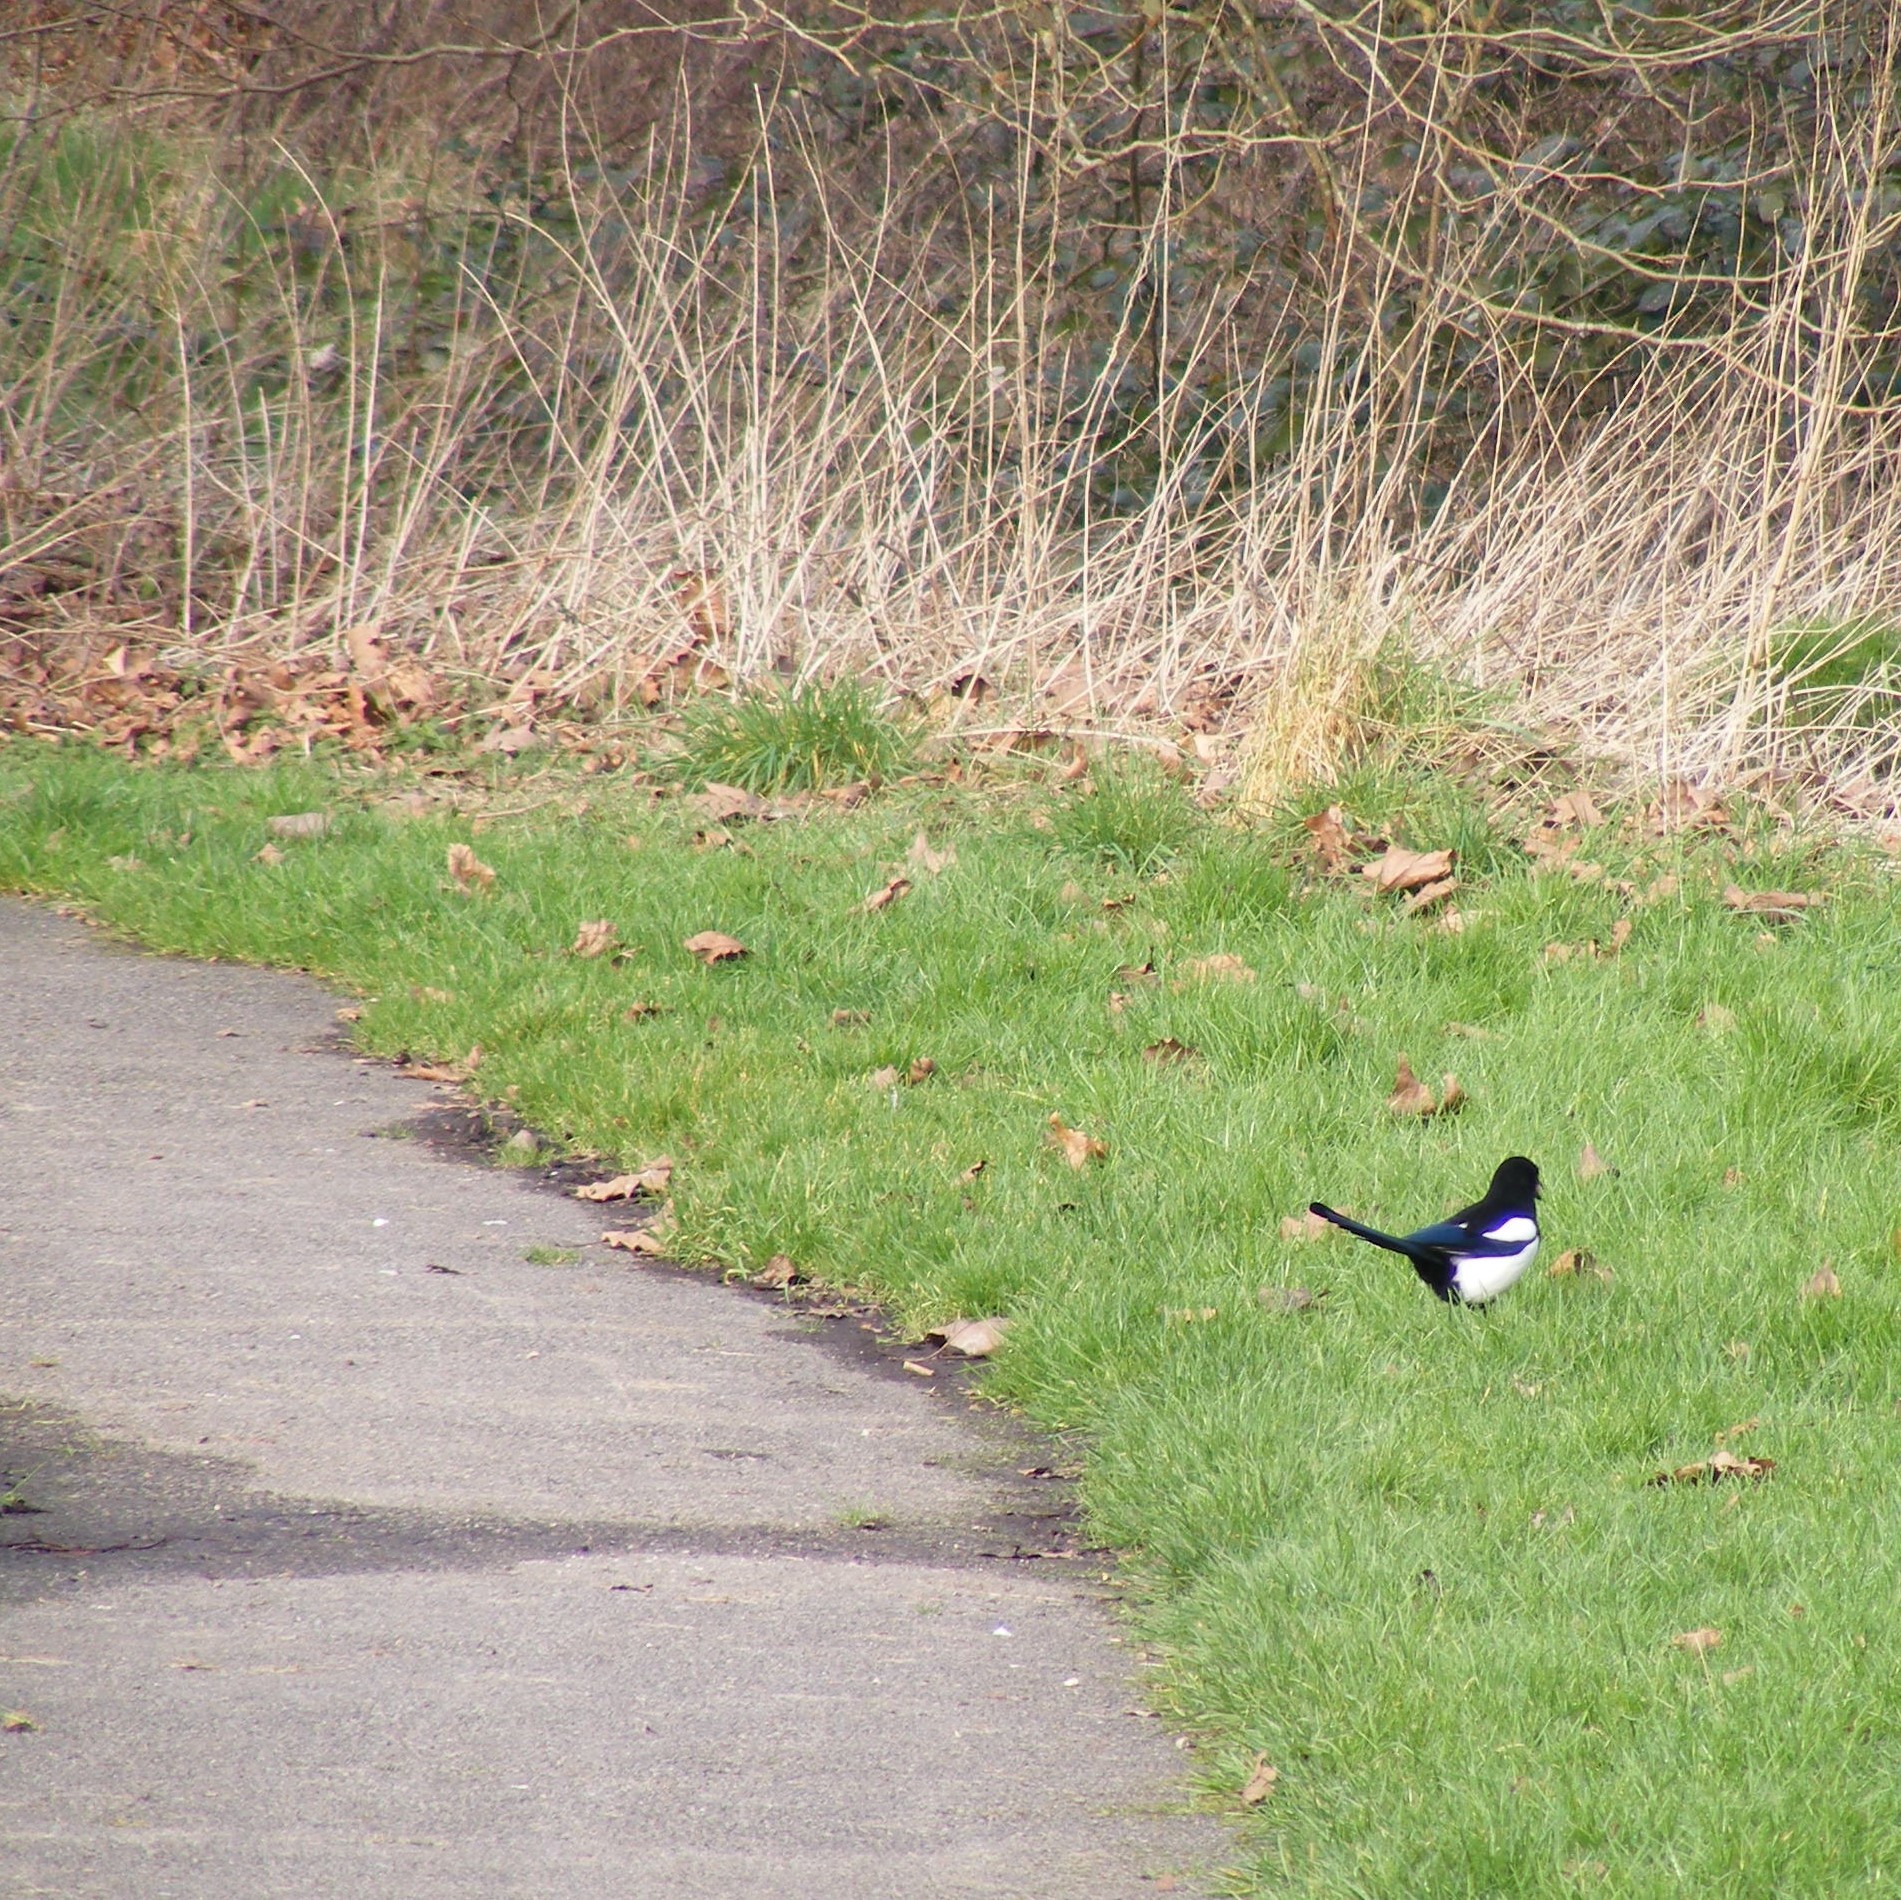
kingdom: Animalia
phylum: Chordata
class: Aves
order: Passeriformes
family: Corvidae
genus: Pica
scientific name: Pica pica
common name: Eurasian magpie
